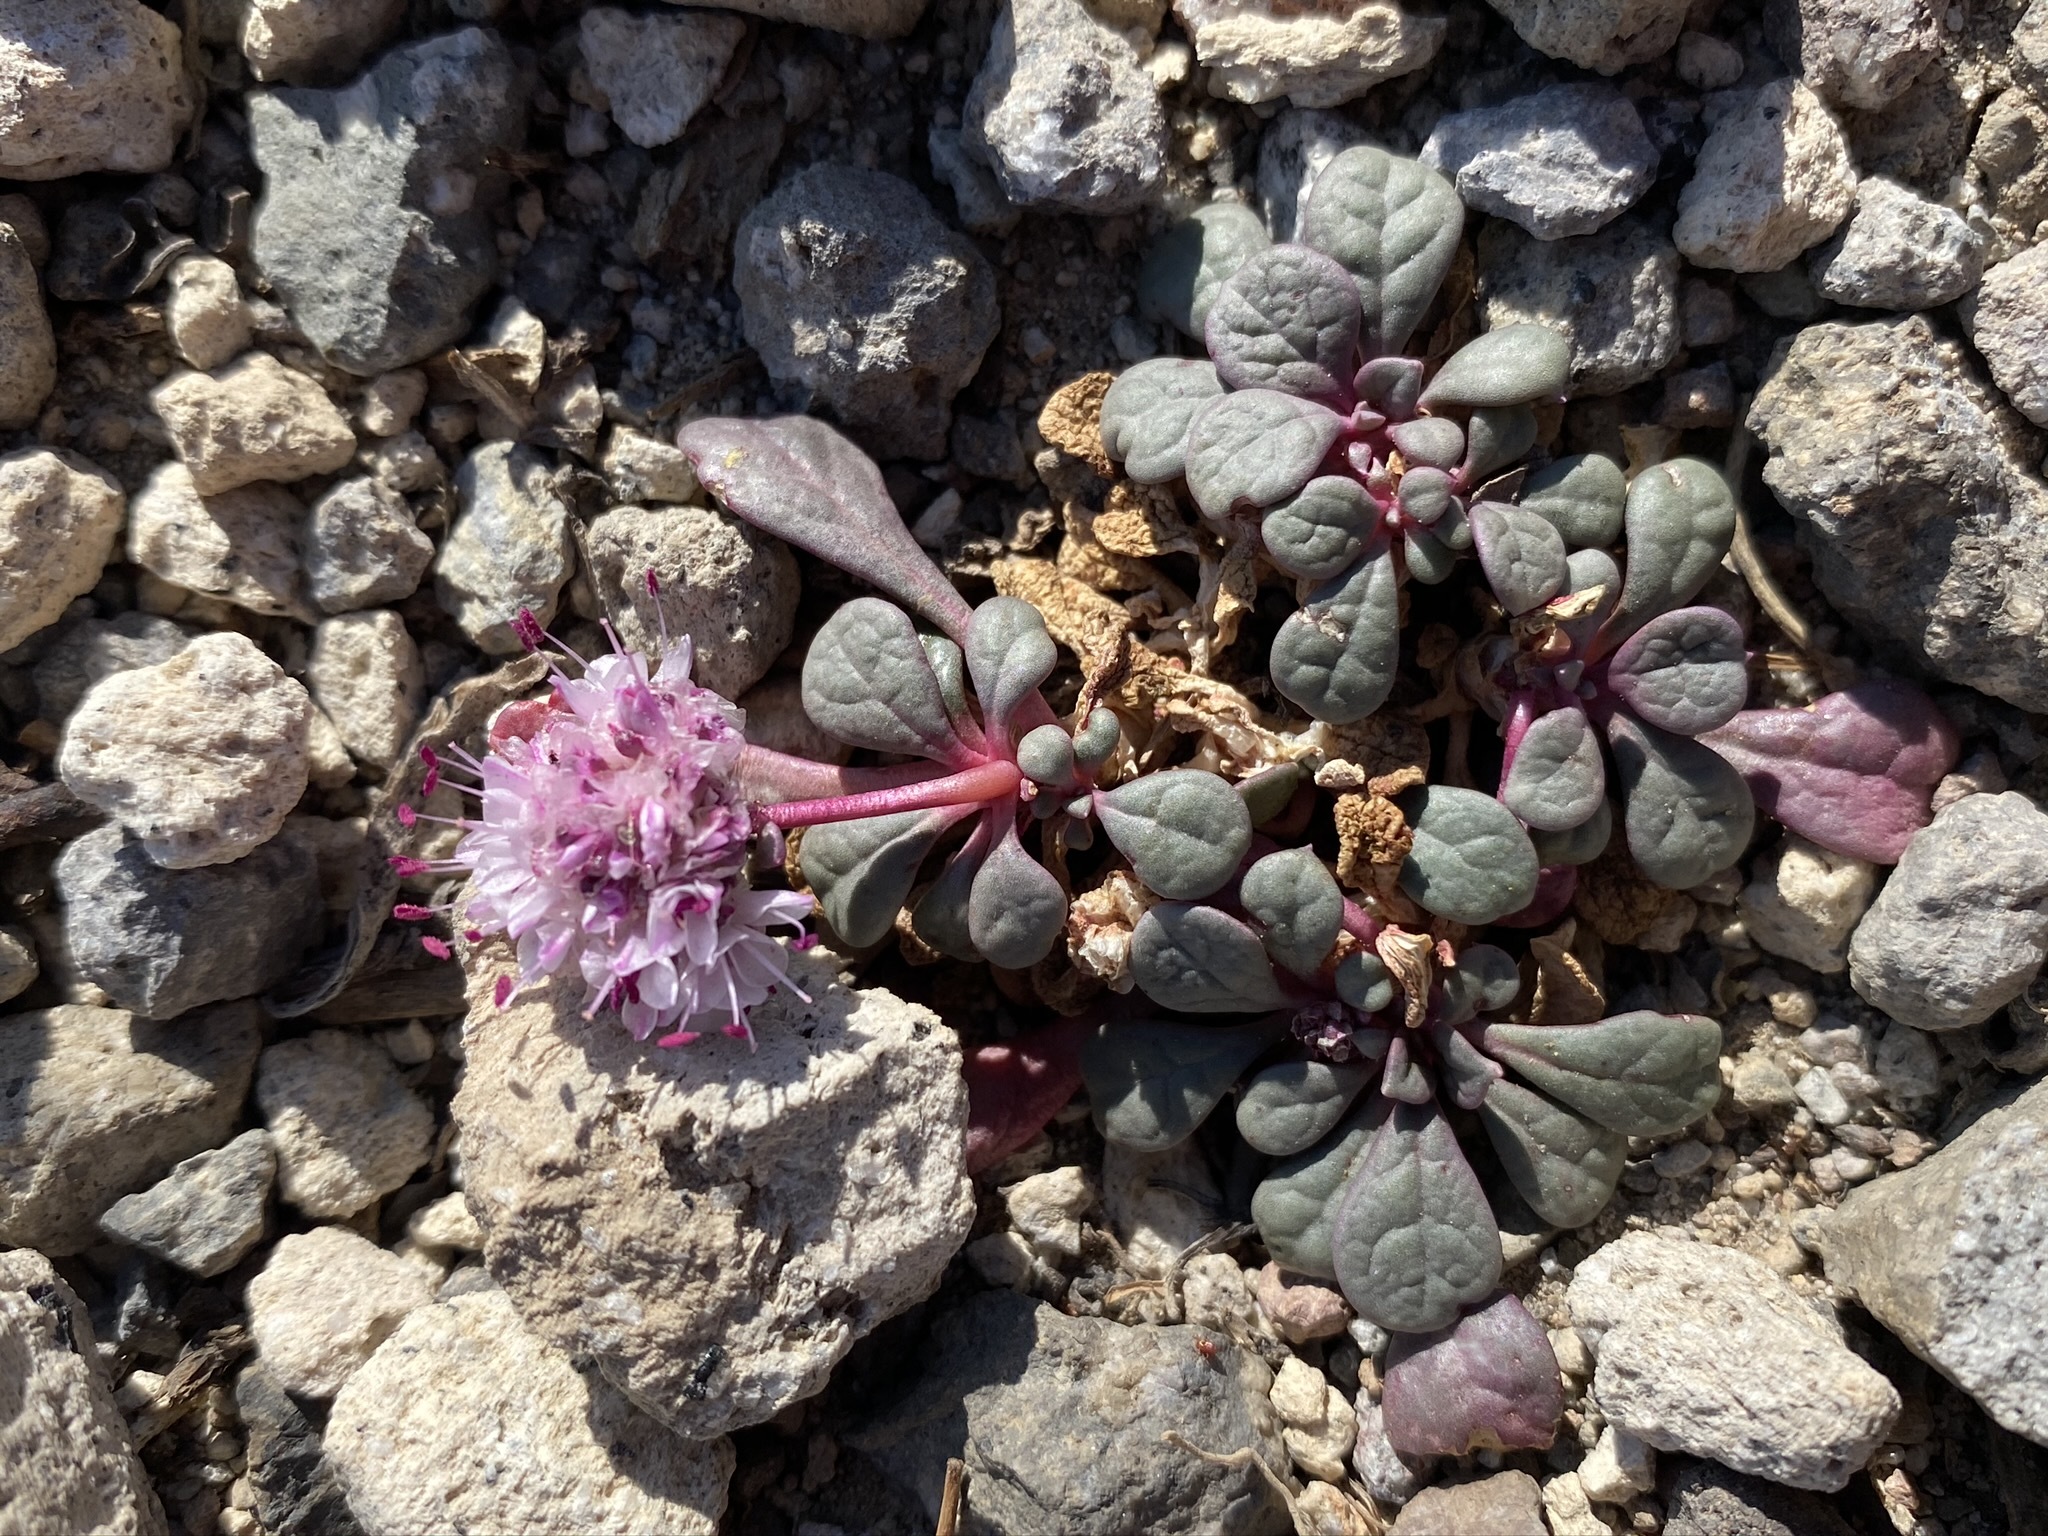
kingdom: Plantae
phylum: Tracheophyta
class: Magnoliopsida
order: Caryophyllales
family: Montiaceae
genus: Calyptridium
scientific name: Calyptridium umbellatum
